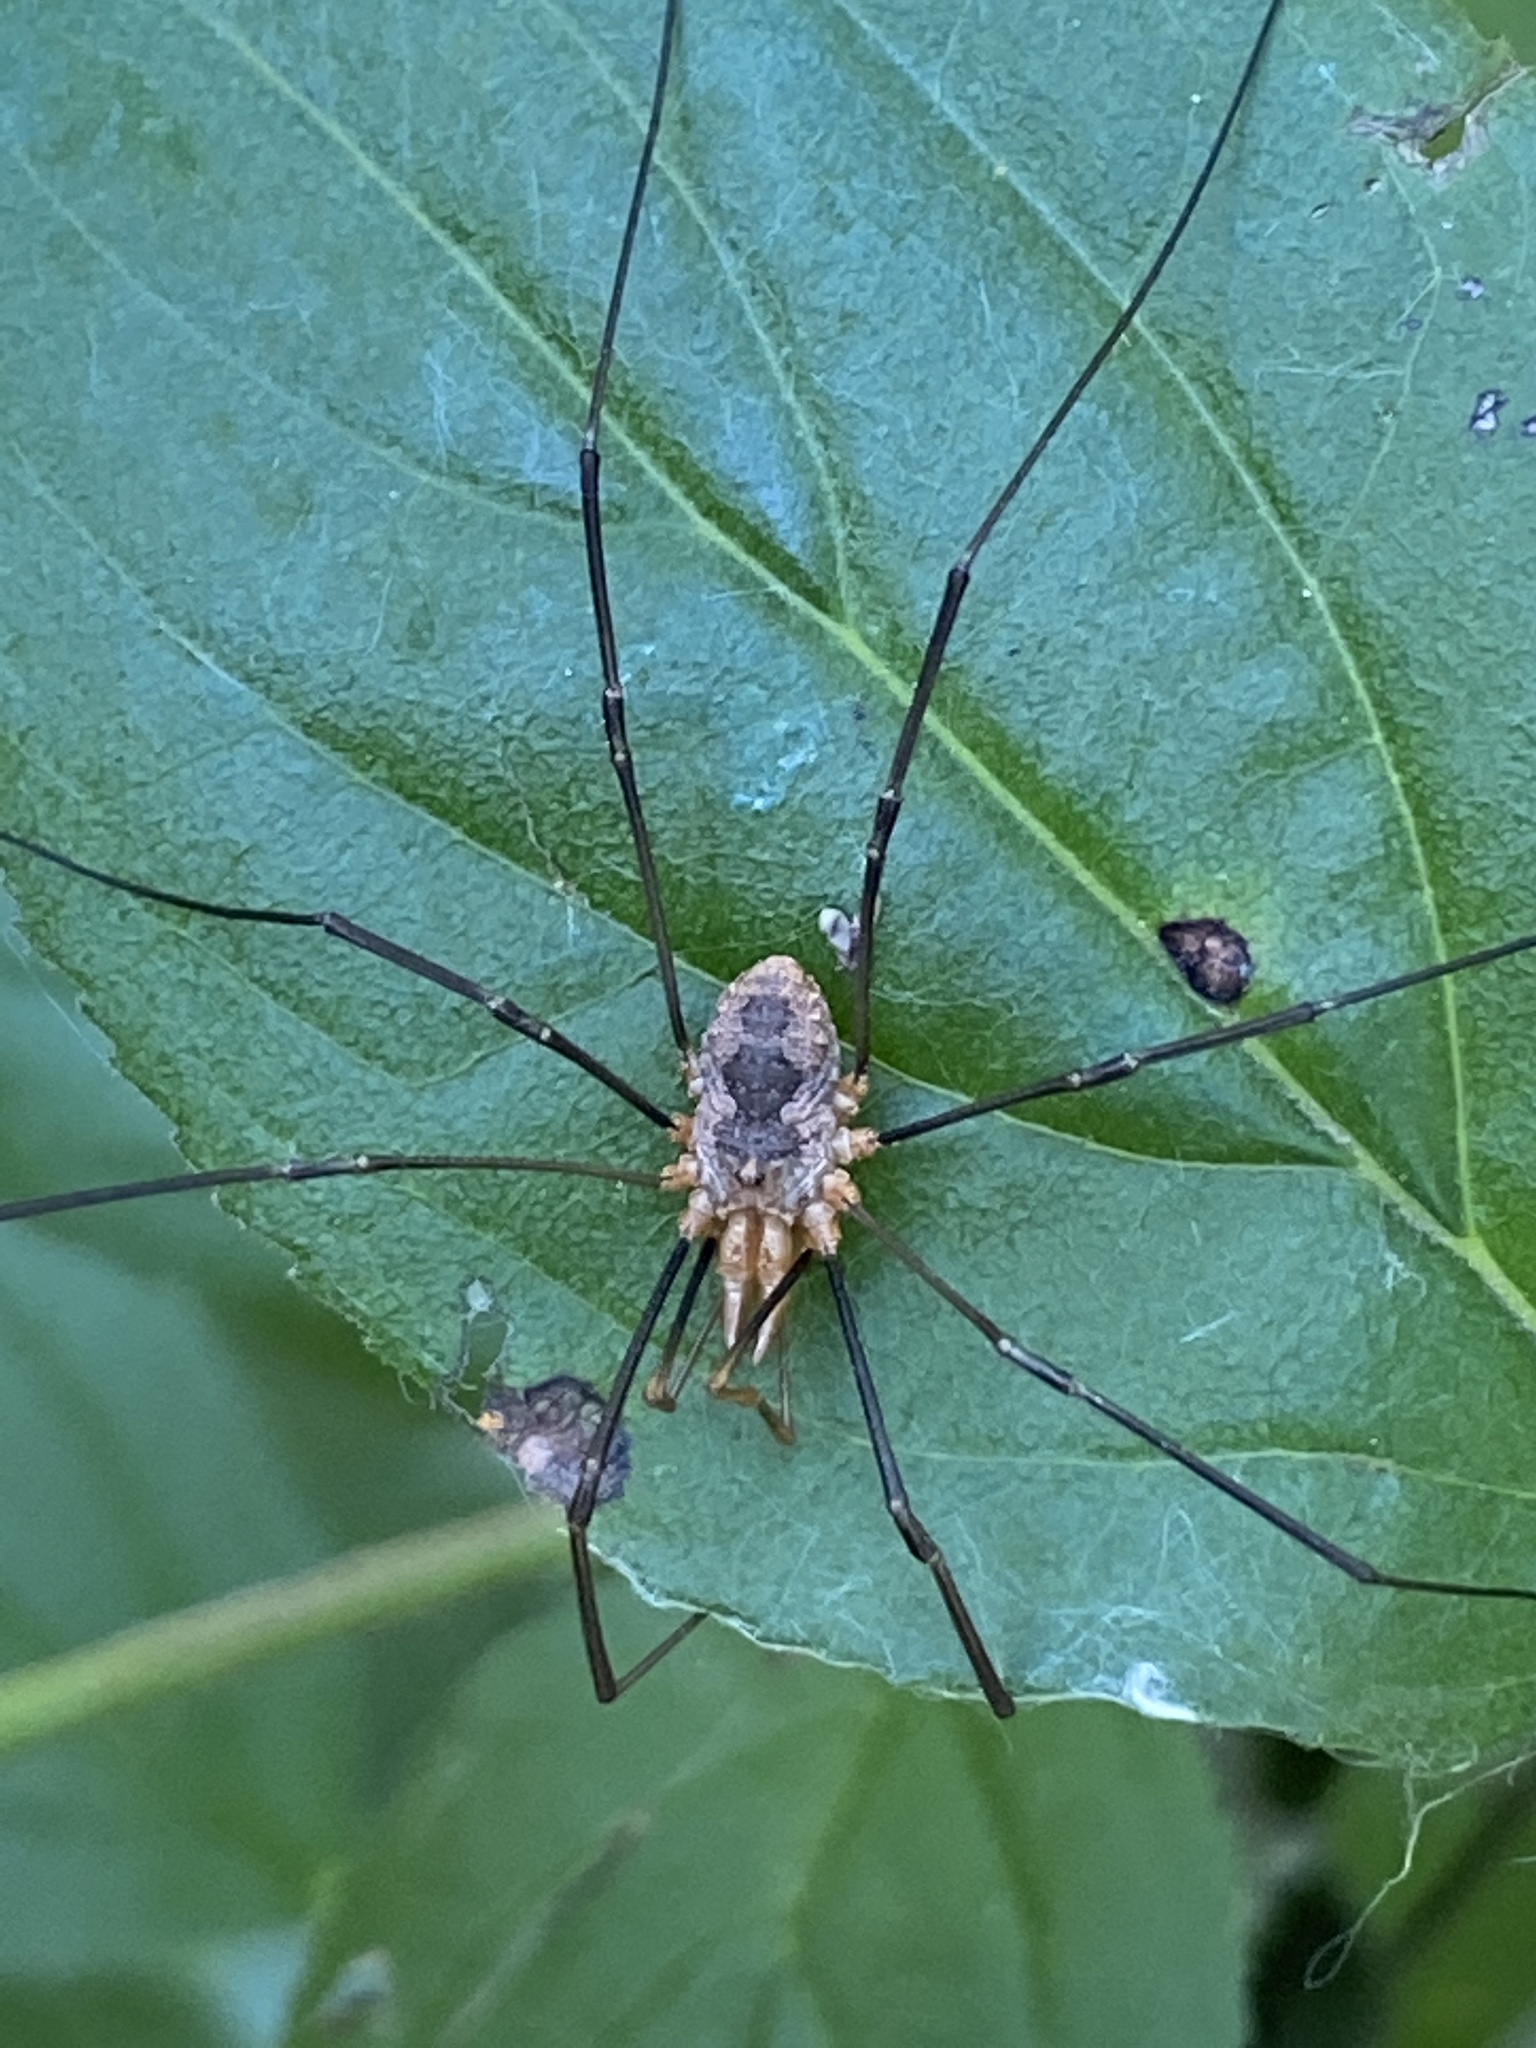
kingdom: Animalia
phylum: Arthropoda
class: Arachnida
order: Opiliones
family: Phalangiidae
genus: Phalangium
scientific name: Phalangium opilio
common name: Daddy longleg
